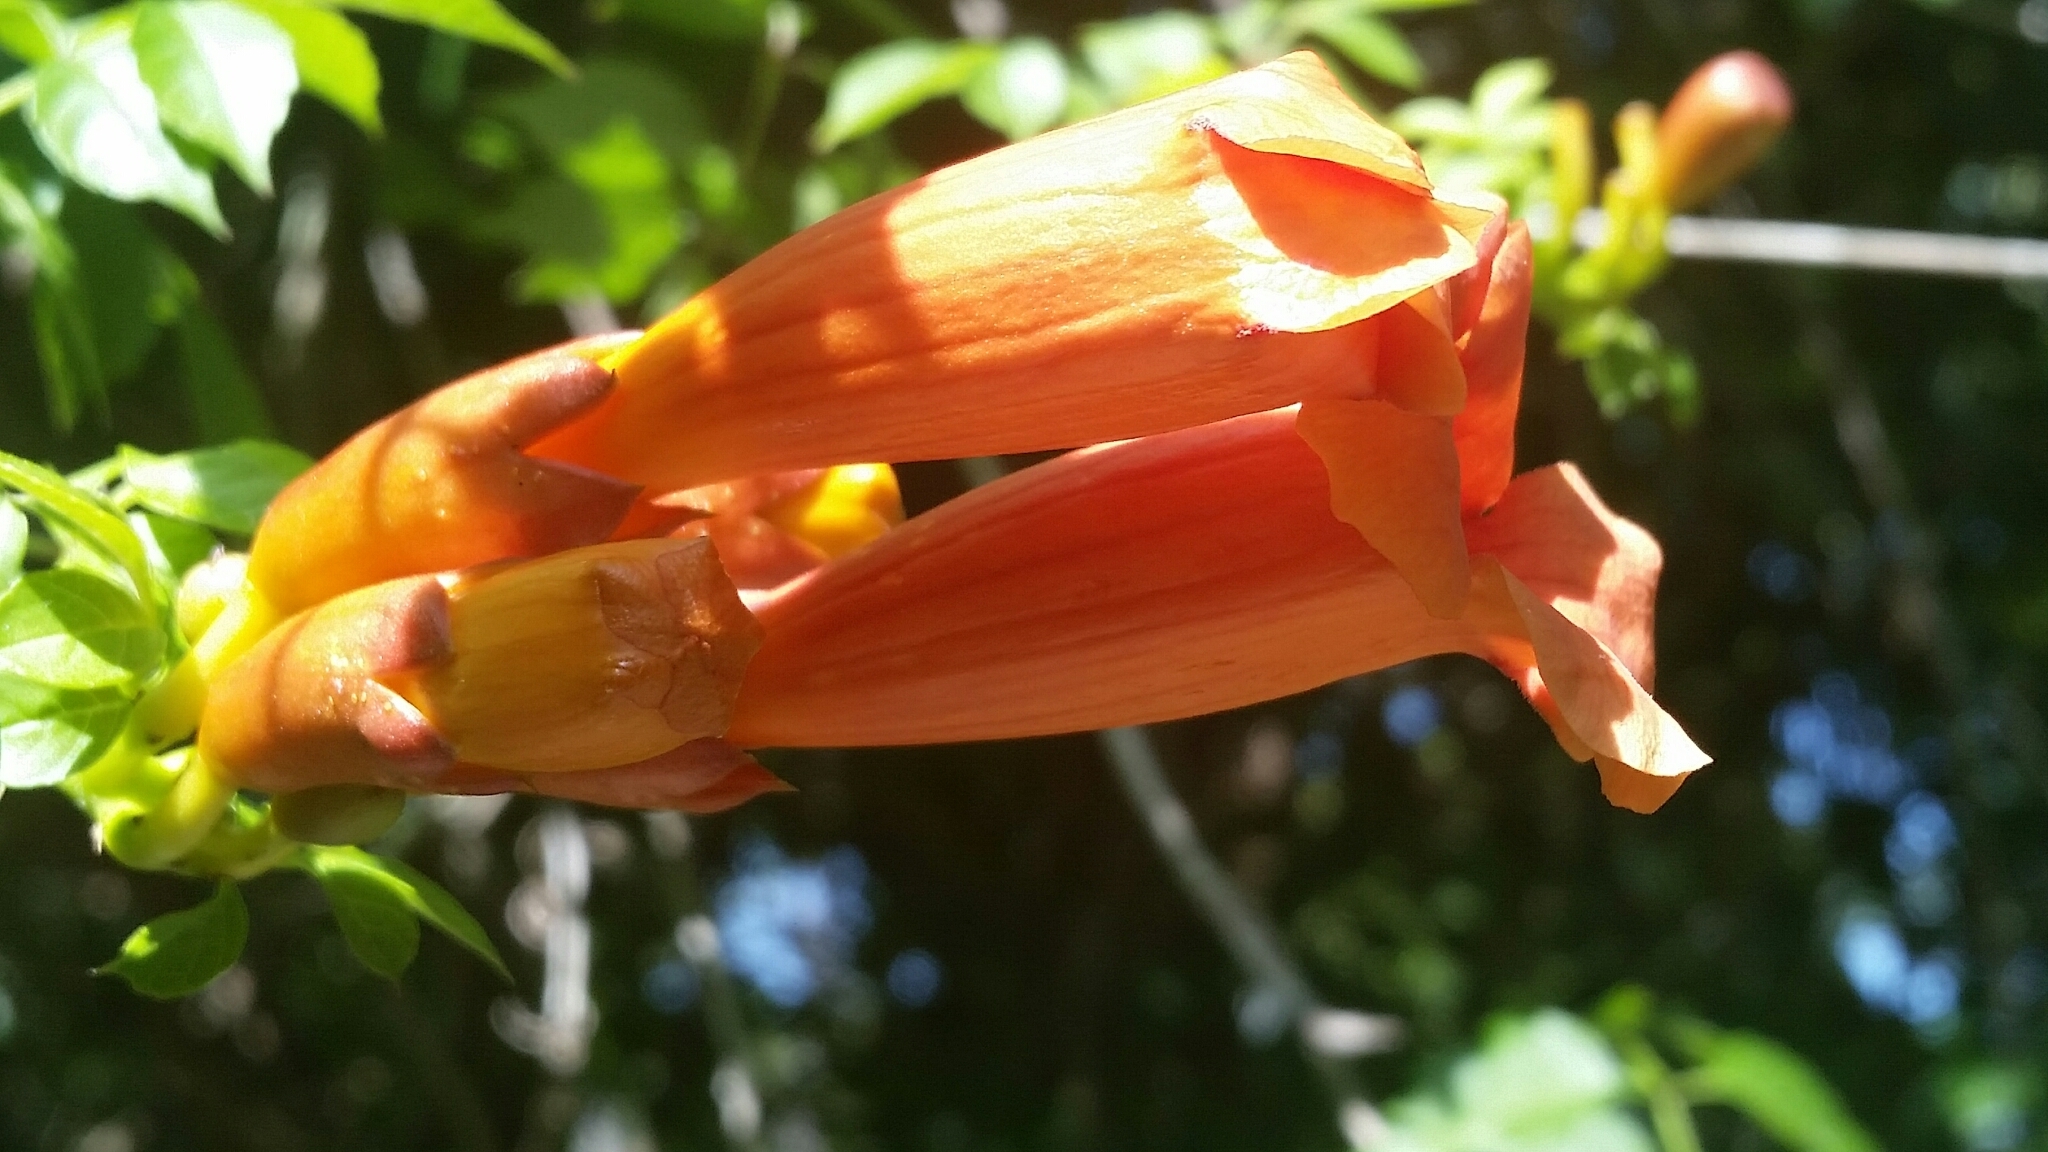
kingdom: Plantae
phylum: Tracheophyta
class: Magnoliopsida
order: Lamiales
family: Bignoniaceae
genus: Campsis
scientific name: Campsis radicans
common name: Trumpet-creeper
